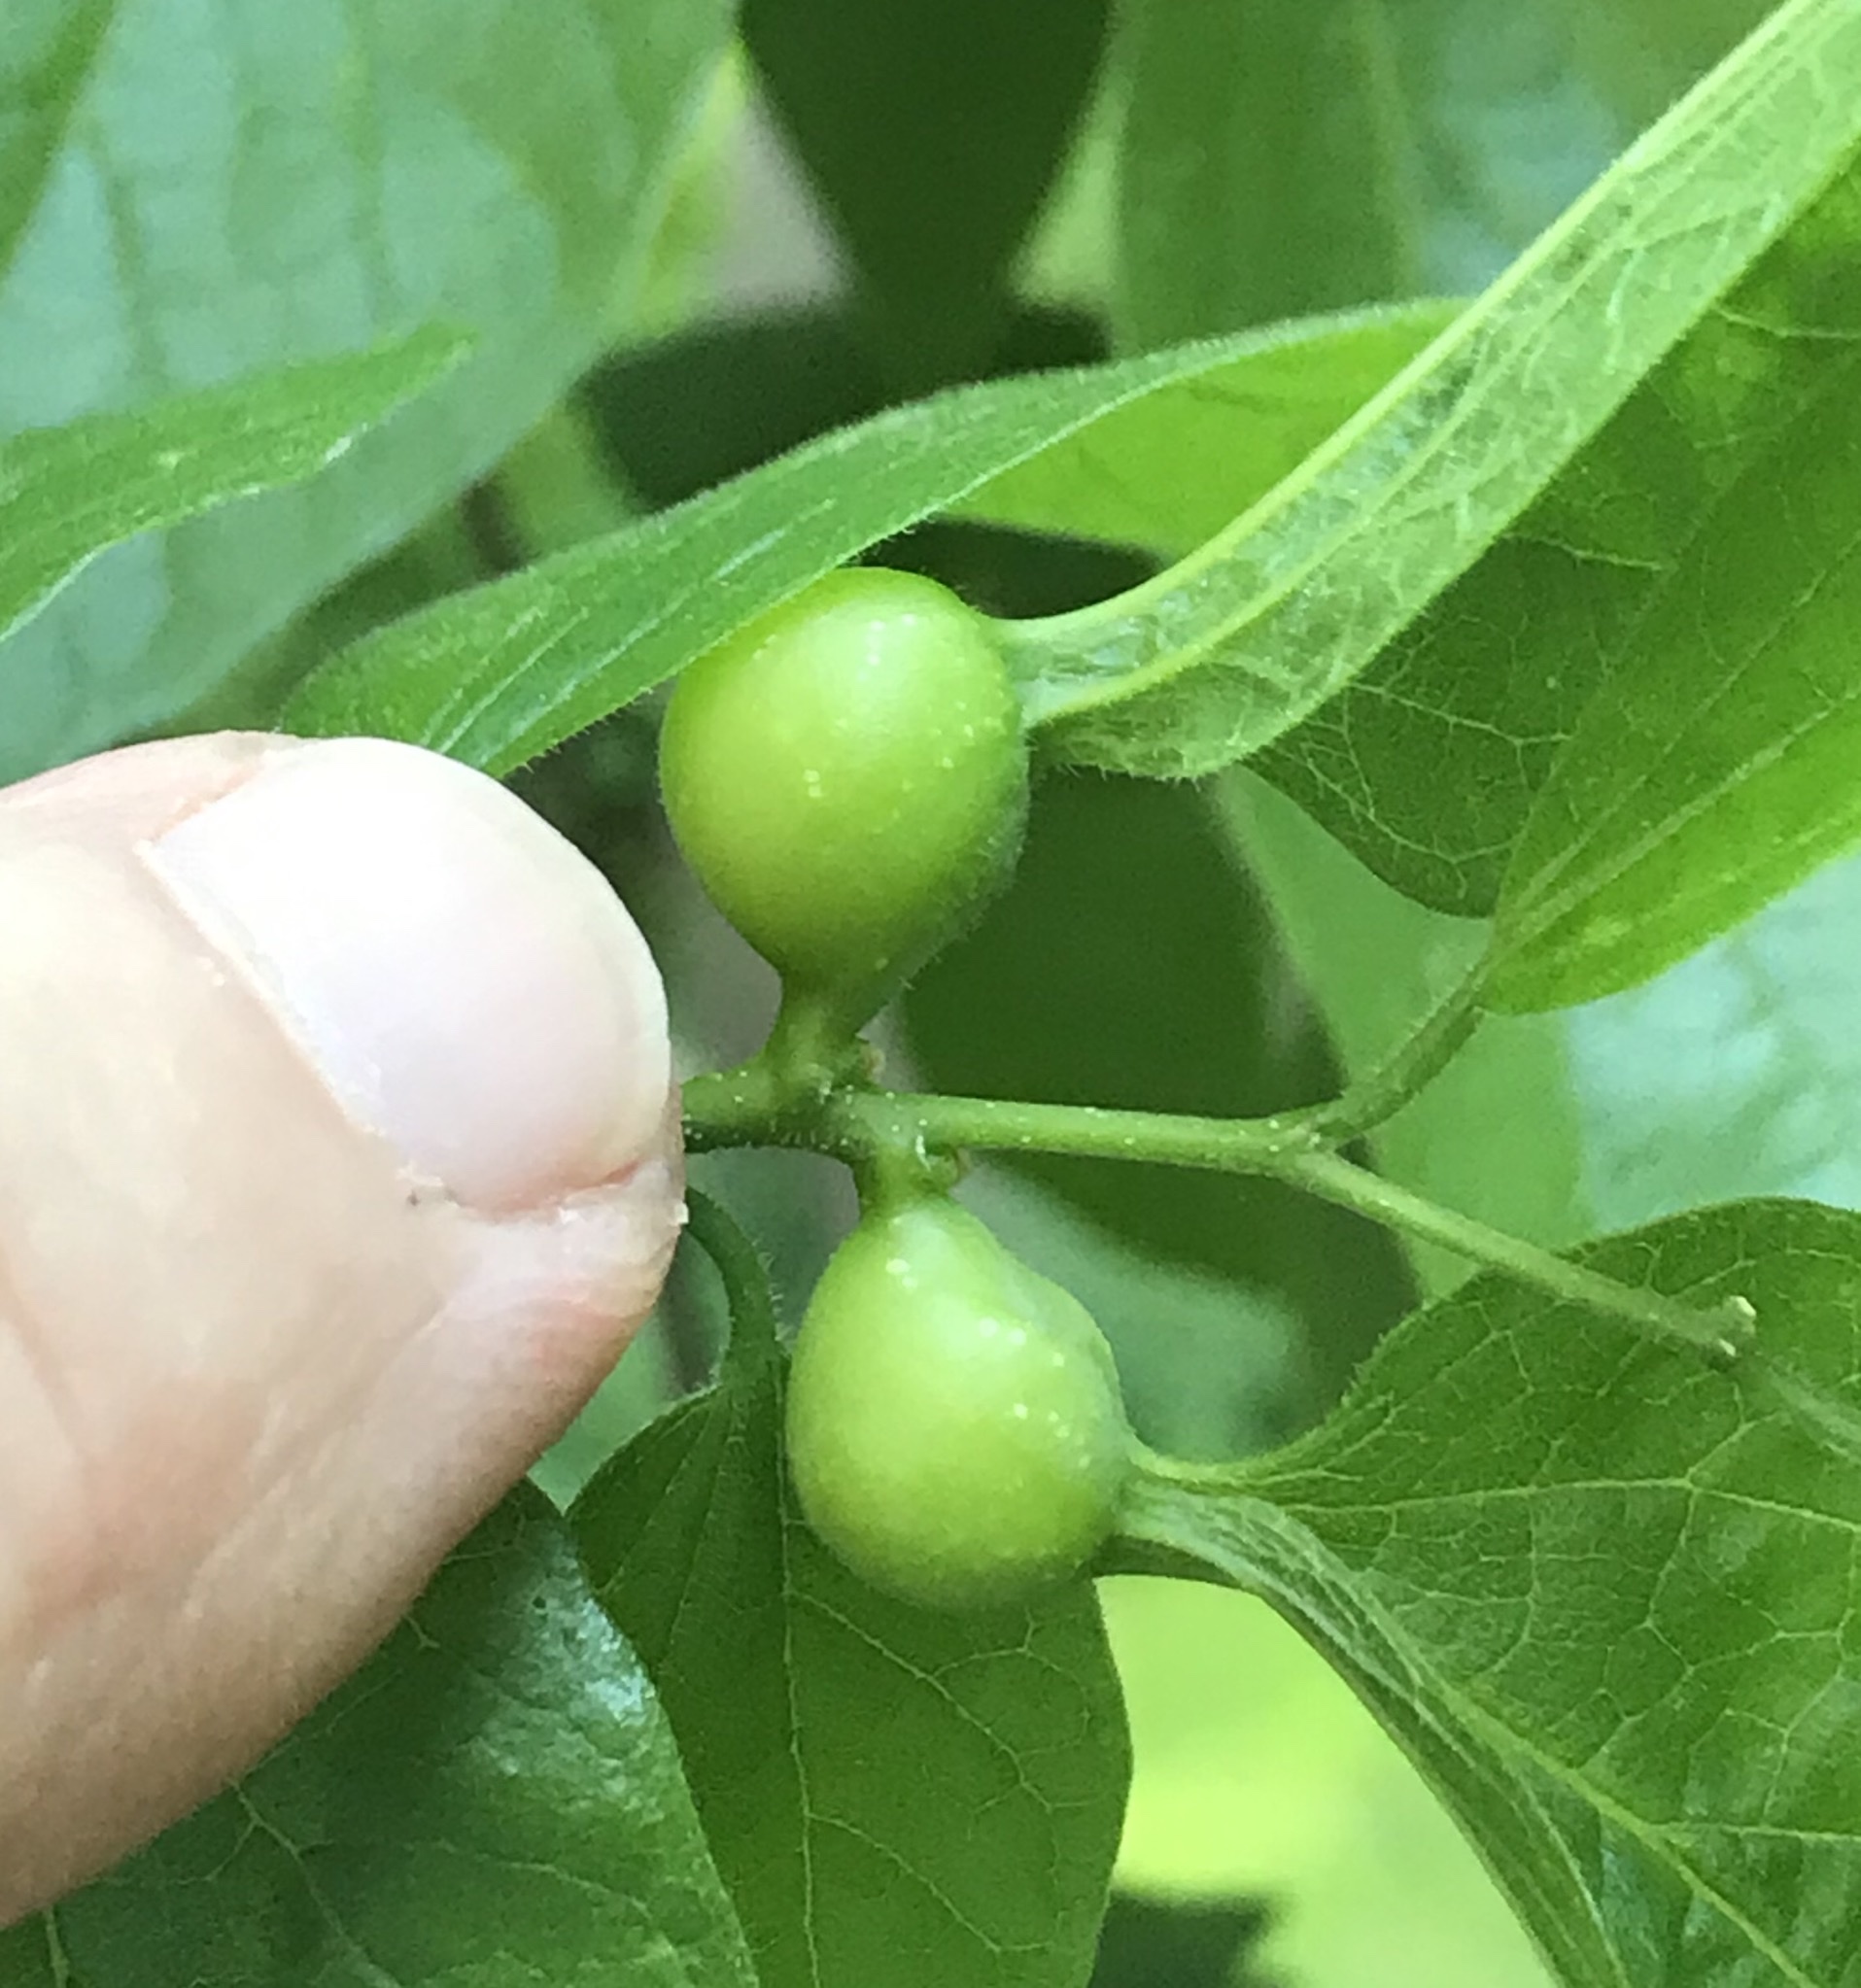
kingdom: Animalia
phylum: Arthropoda
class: Insecta
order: Hemiptera
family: Aphalaridae
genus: Pachypsylla
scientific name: Pachypsylla venusta
